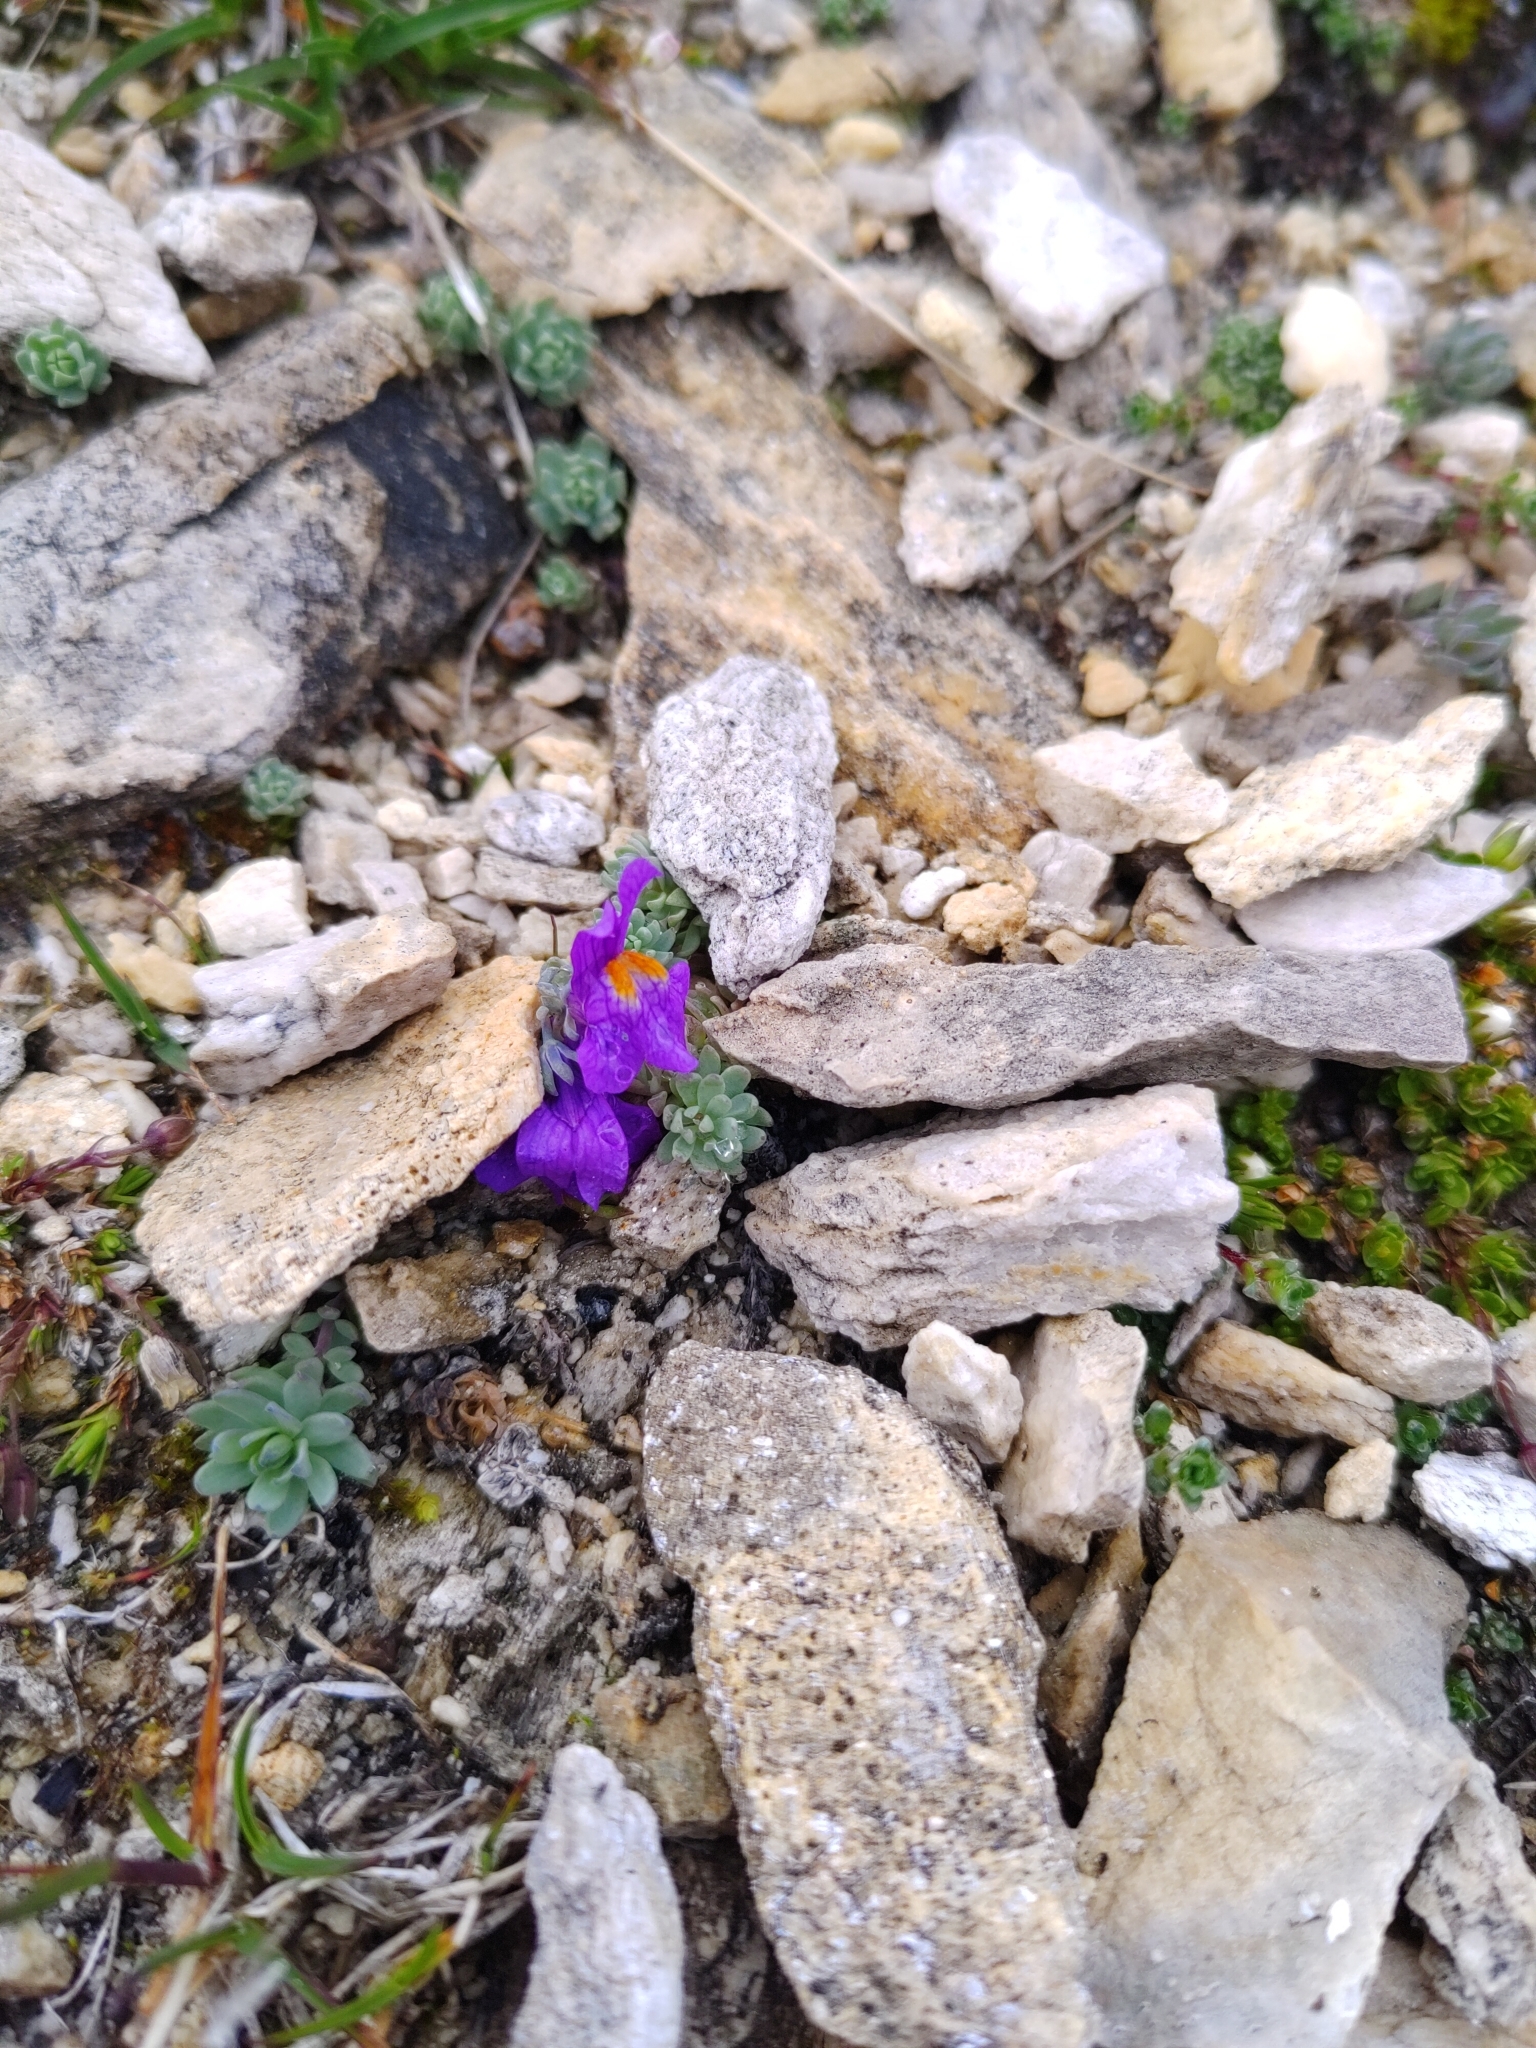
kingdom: Plantae
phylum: Tracheophyta
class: Magnoliopsida
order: Lamiales
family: Plantaginaceae
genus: Linaria
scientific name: Linaria alpina
